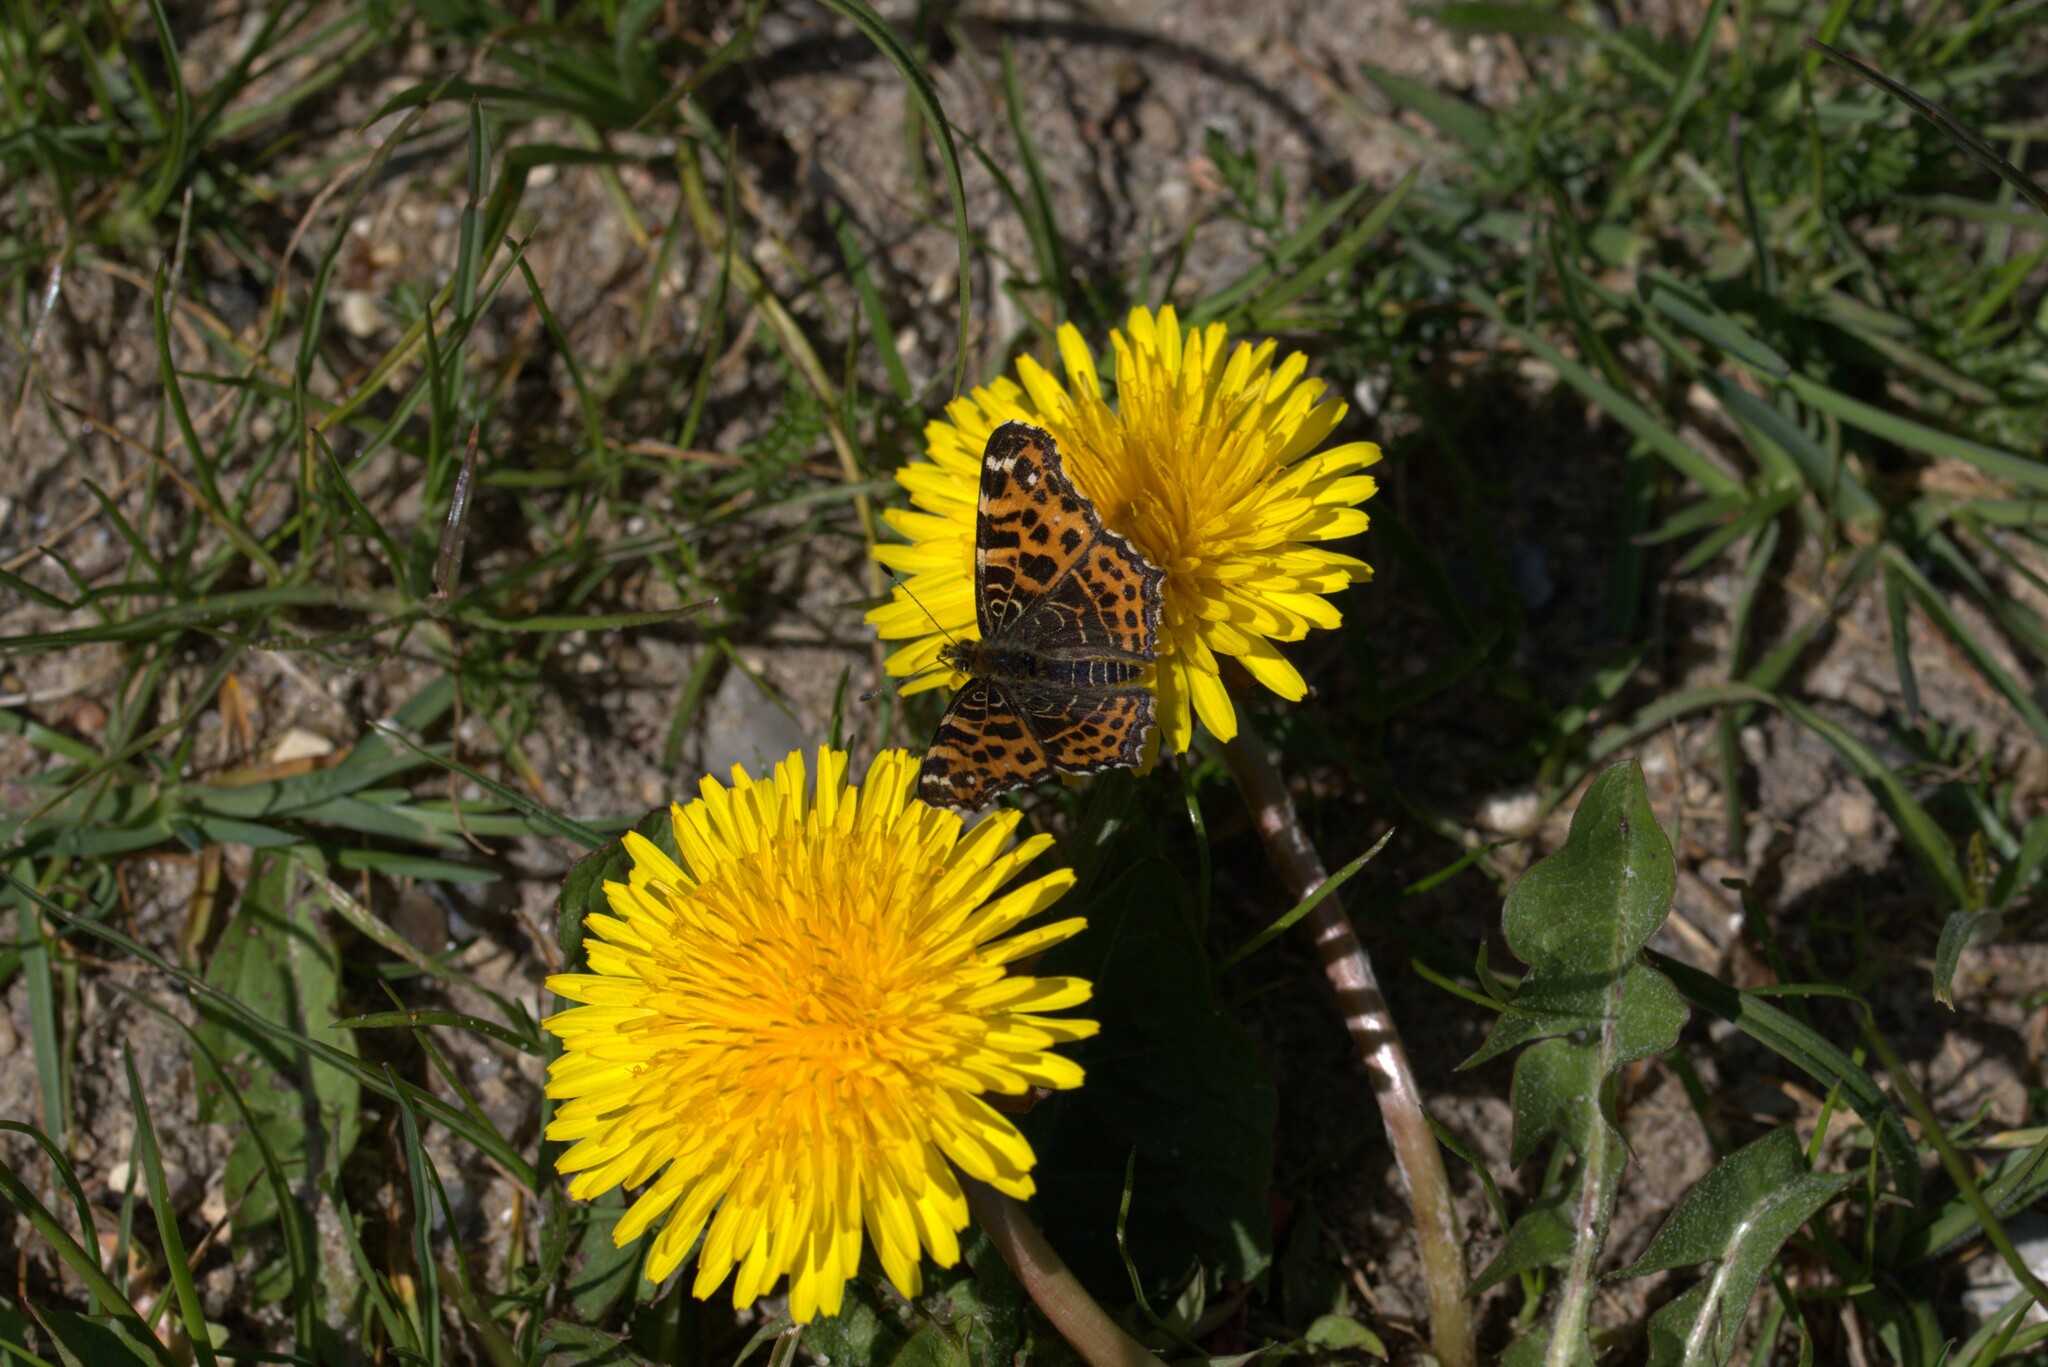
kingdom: Animalia
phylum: Arthropoda
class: Insecta
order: Lepidoptera
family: Nymphalidae
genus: Araschnia
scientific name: Araschnia levana
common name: Map butterfly
